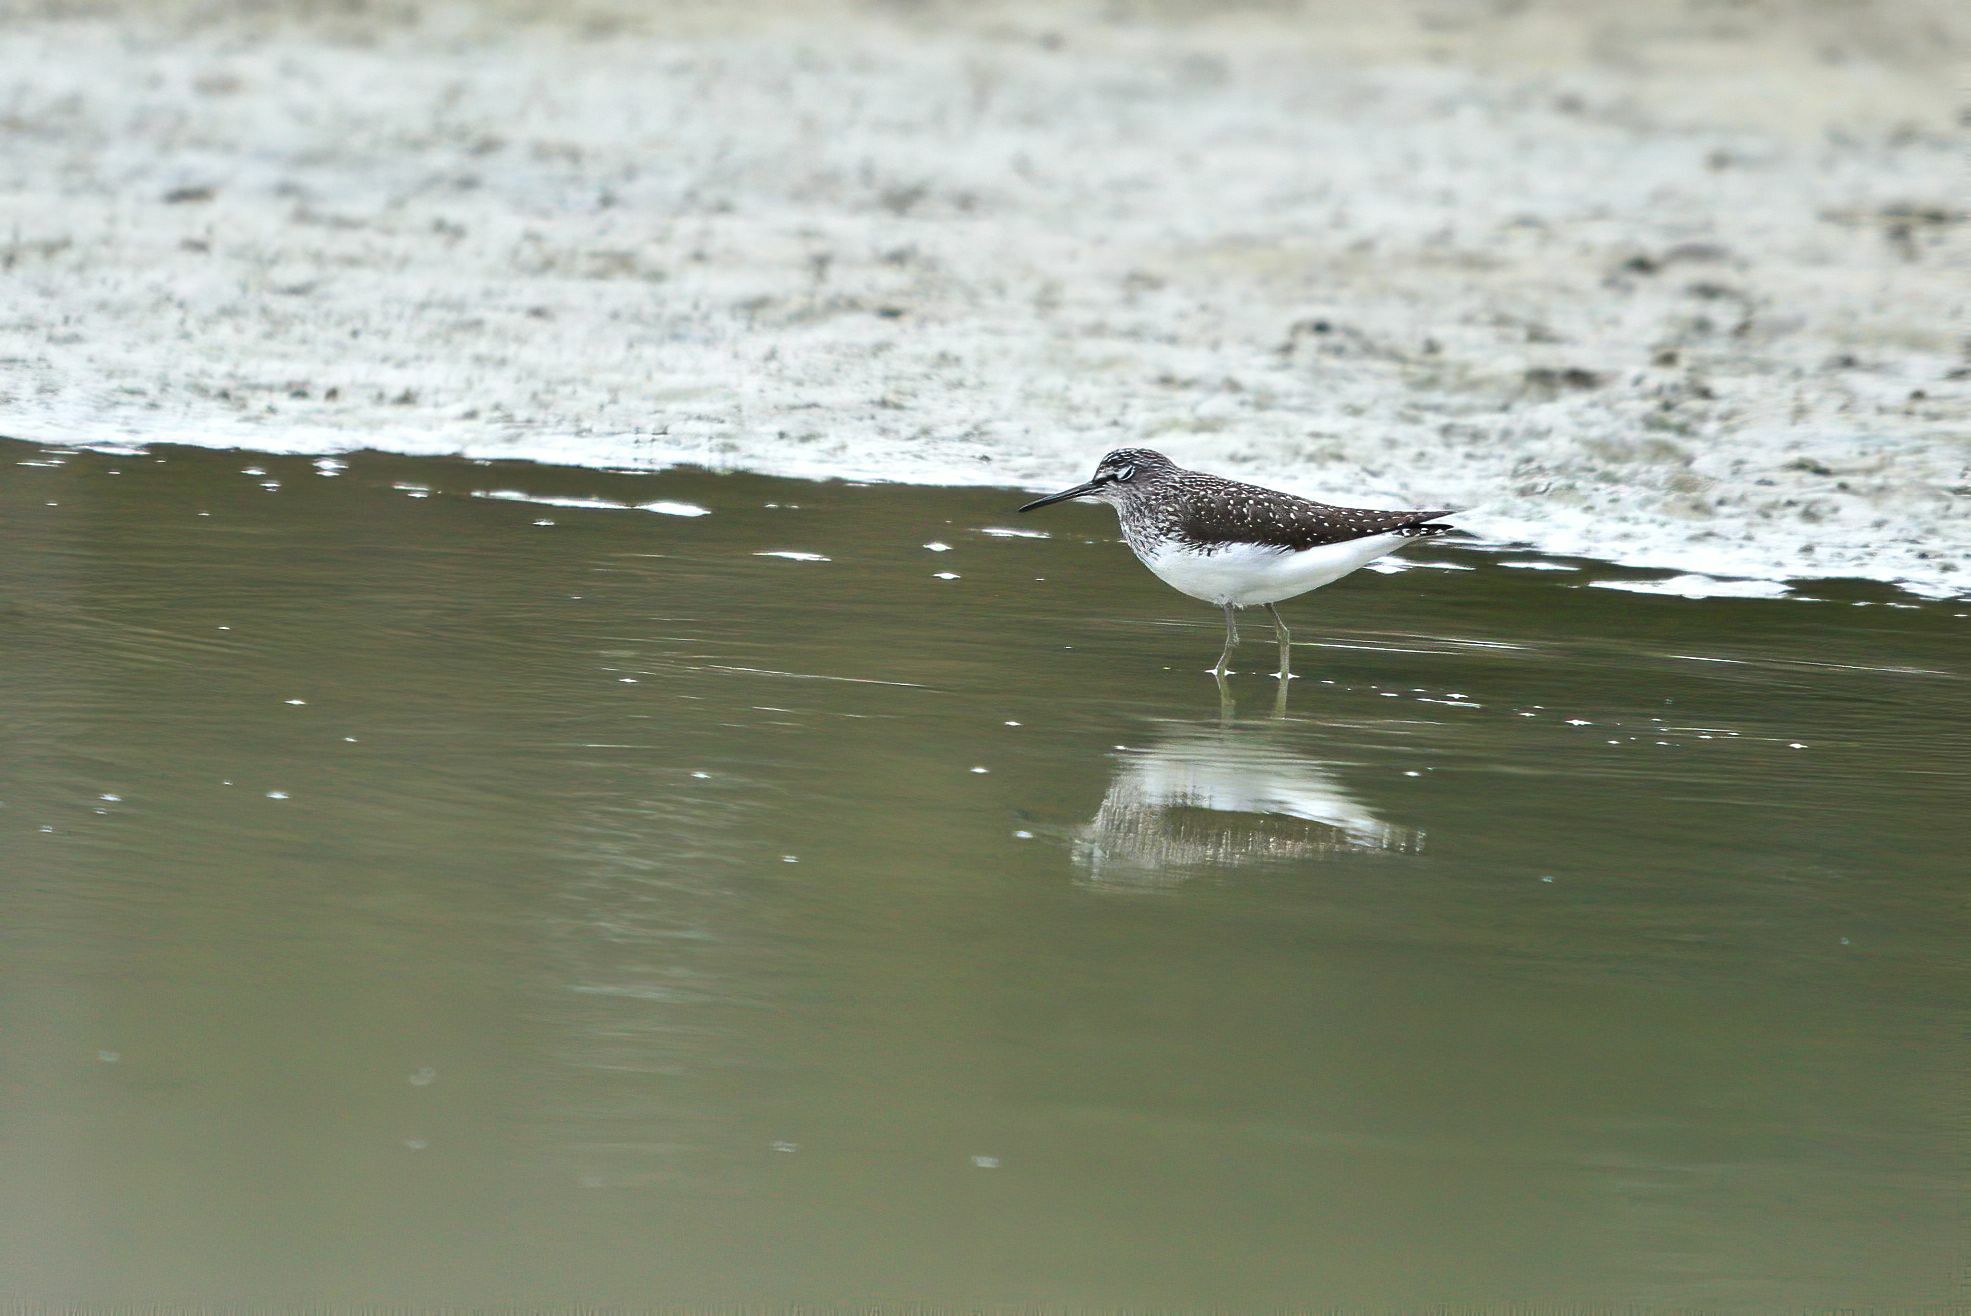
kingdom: Animalia
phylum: Chordata
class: Aves
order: Charadriiformes
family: Scolopacidae
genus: Tringa
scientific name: Tringa ochropus
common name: Green sandpiper
